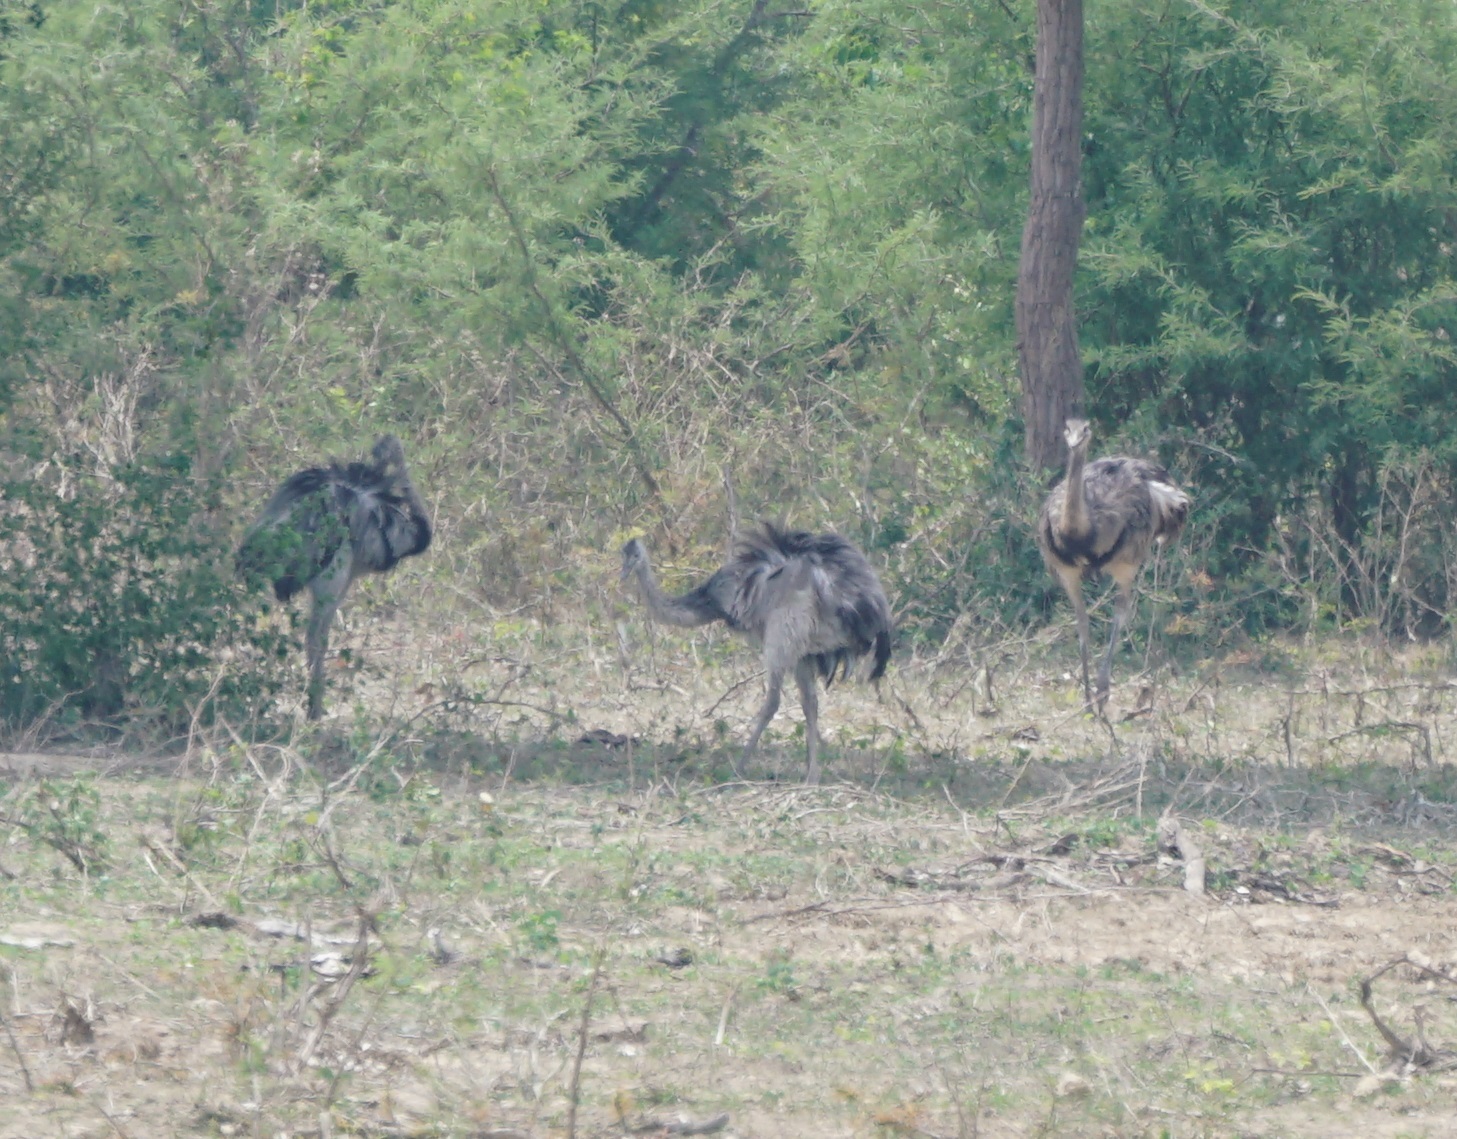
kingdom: Animalia
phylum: Chordata
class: Aves
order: Rheiformes
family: Rheidae
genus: Rhea
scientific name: Rhea americana
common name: Greater rhea
